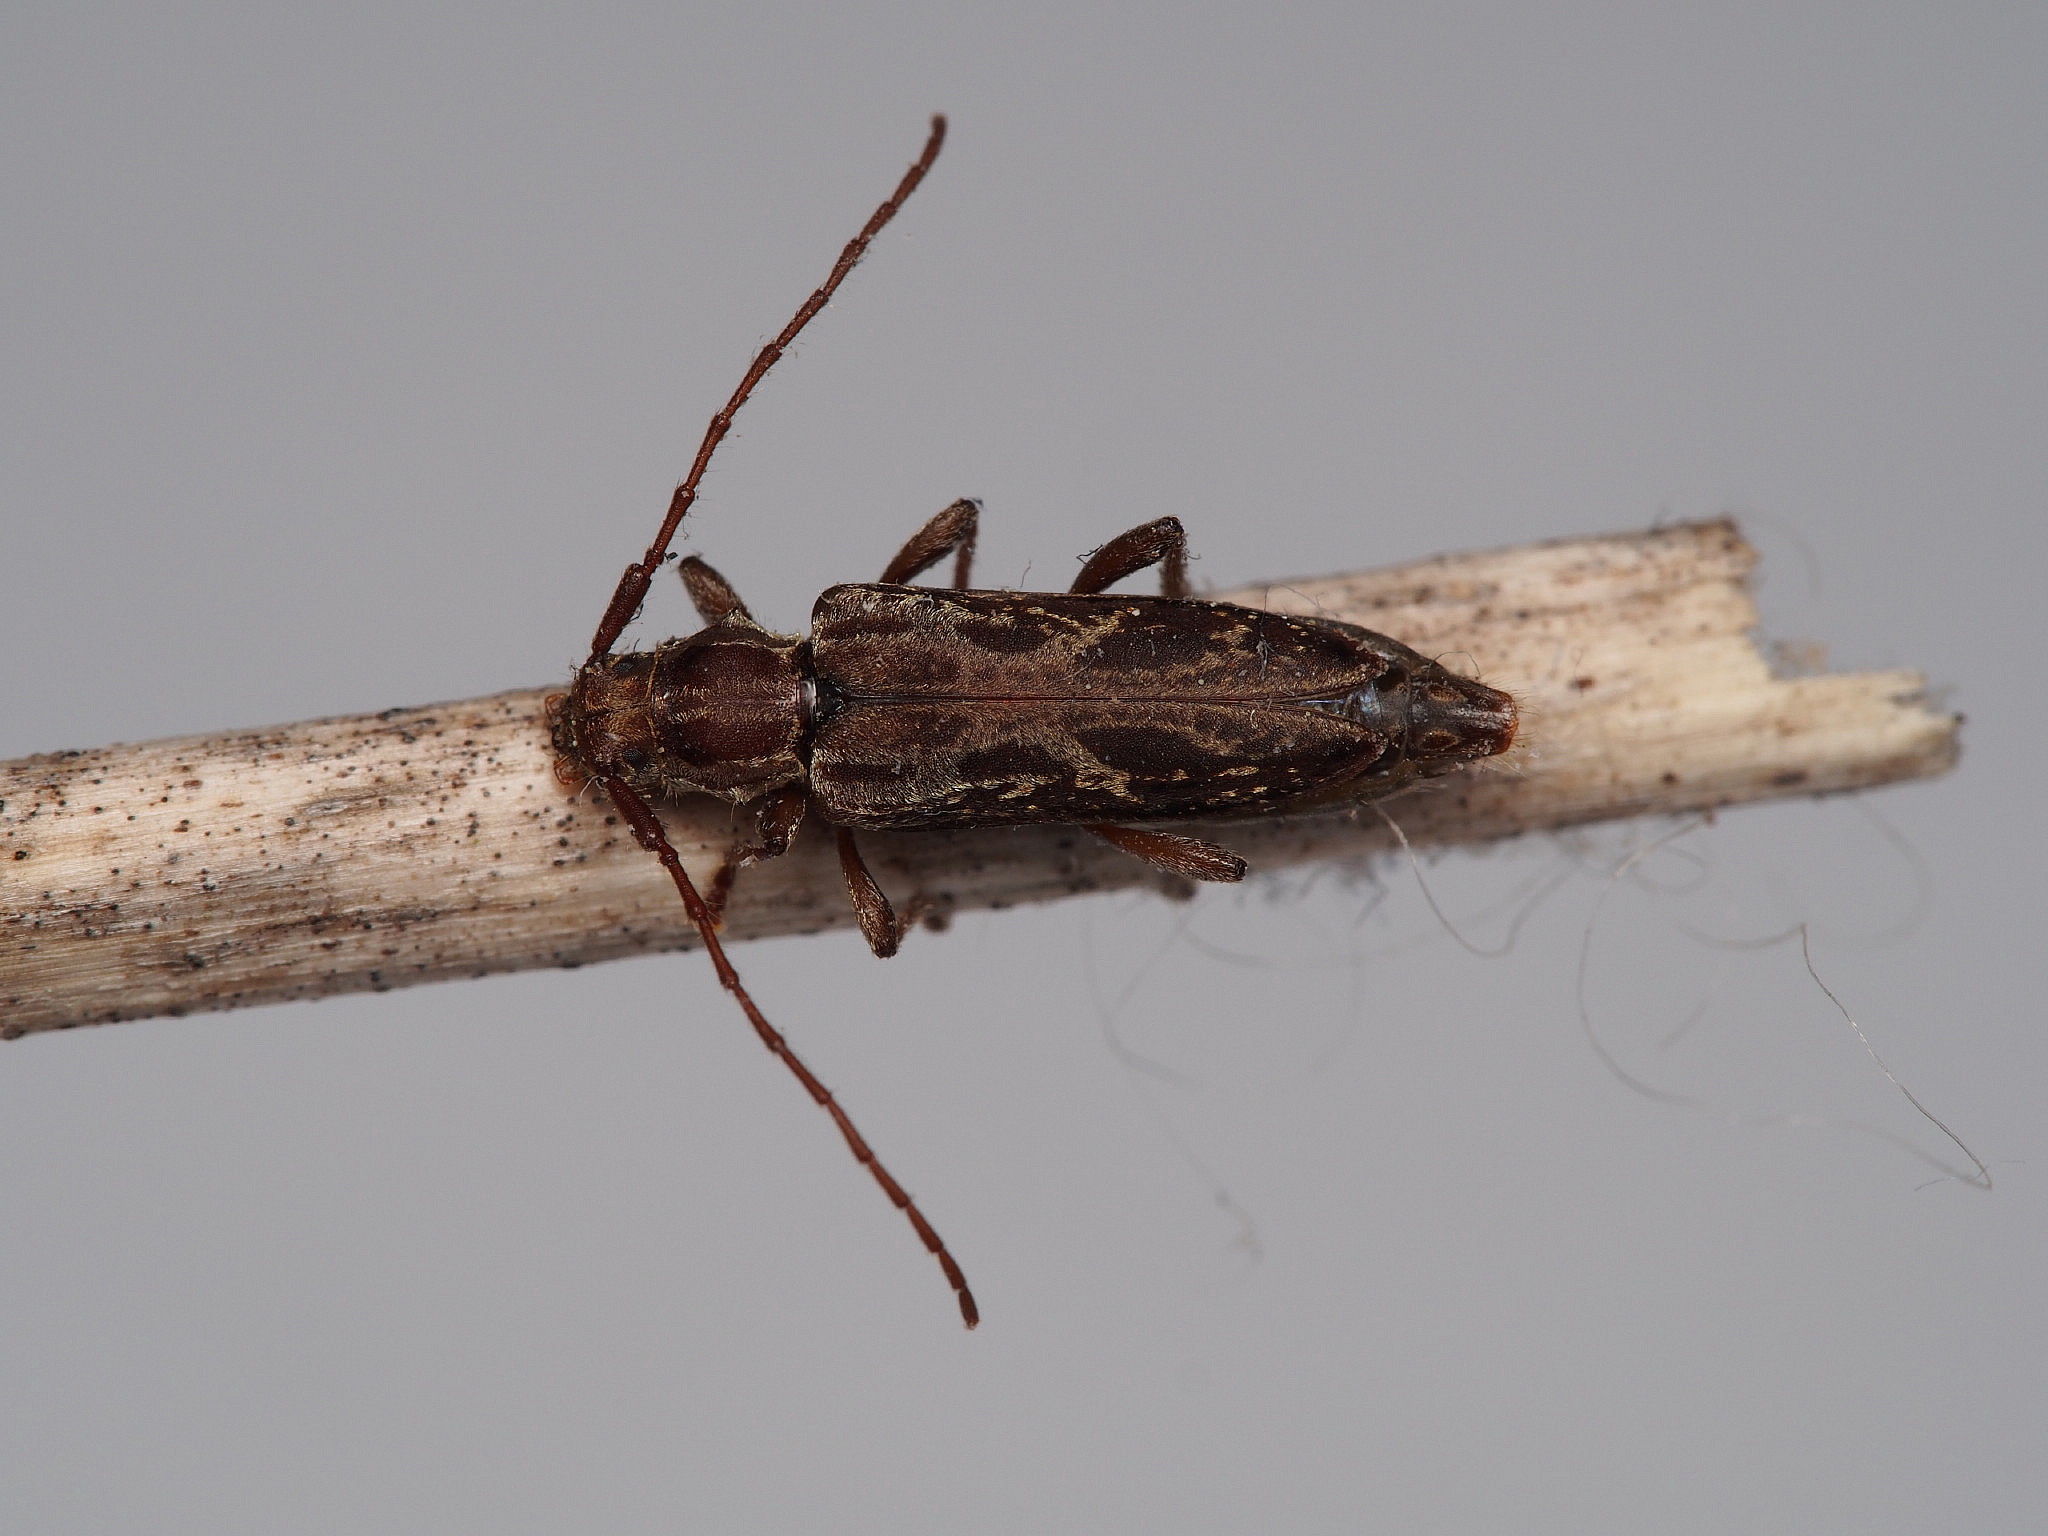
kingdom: Animalia
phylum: Arthropoda
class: Insecta
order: Coleoptera
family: Cerambycidae
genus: Eburilla
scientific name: Eburilla sericea
